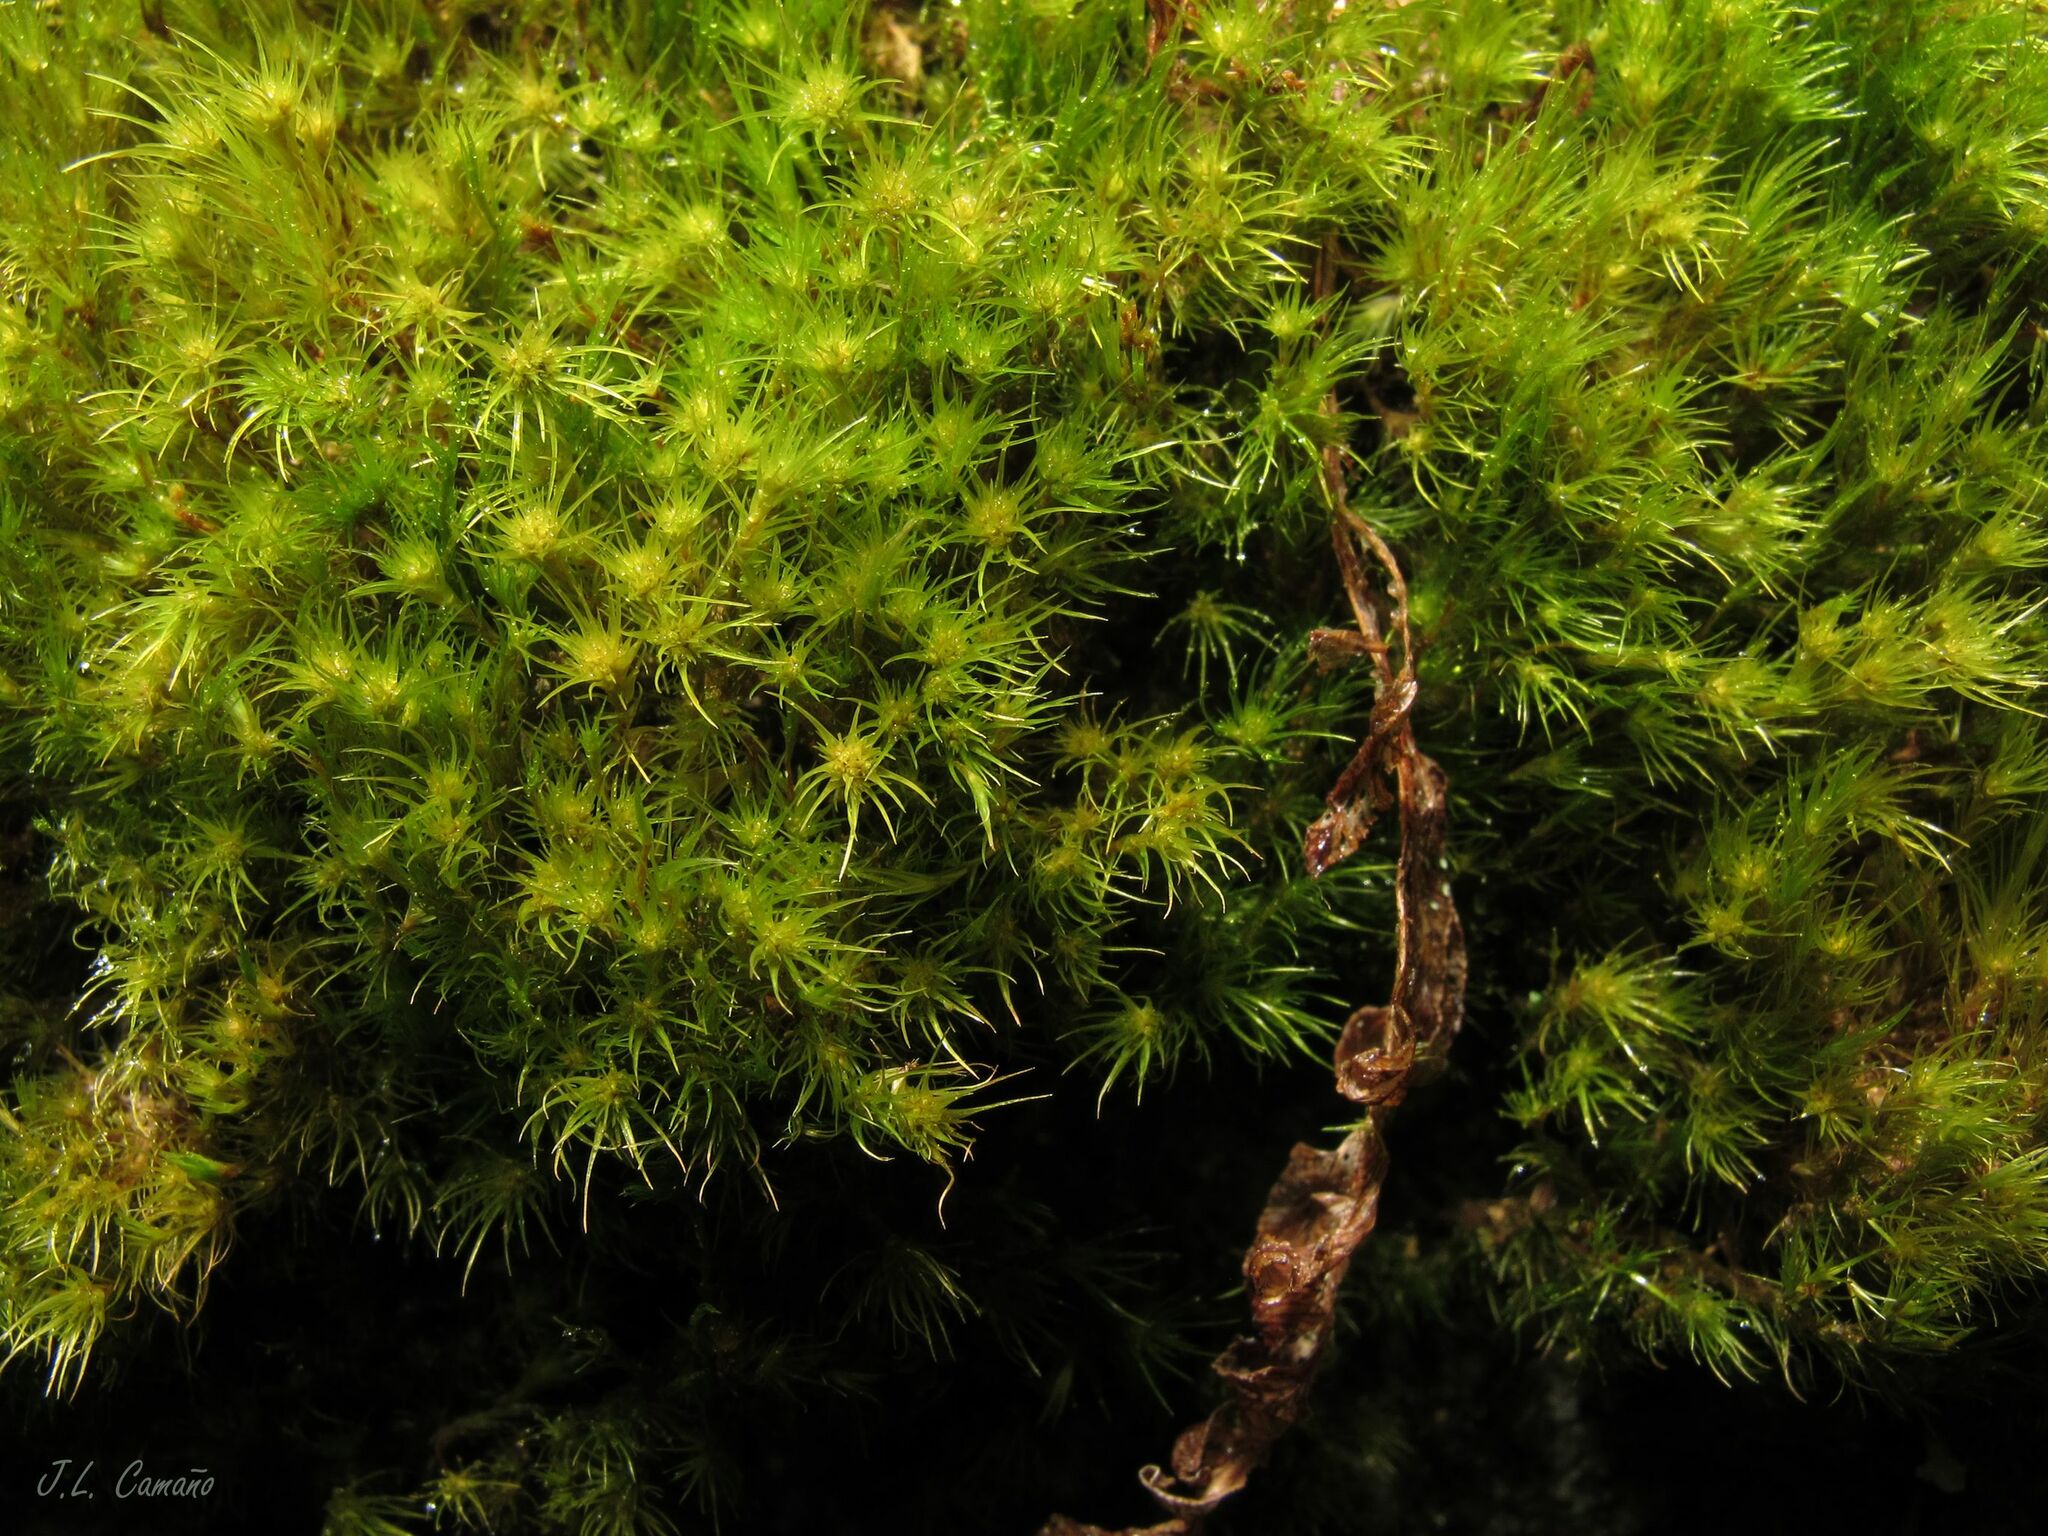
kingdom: Plantae
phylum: Bryophyta
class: Bryopsida
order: Dicranales
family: Leucobryaceae
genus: Campylopus
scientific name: Campylopus fragilis
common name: Brittle swan-neck moss
